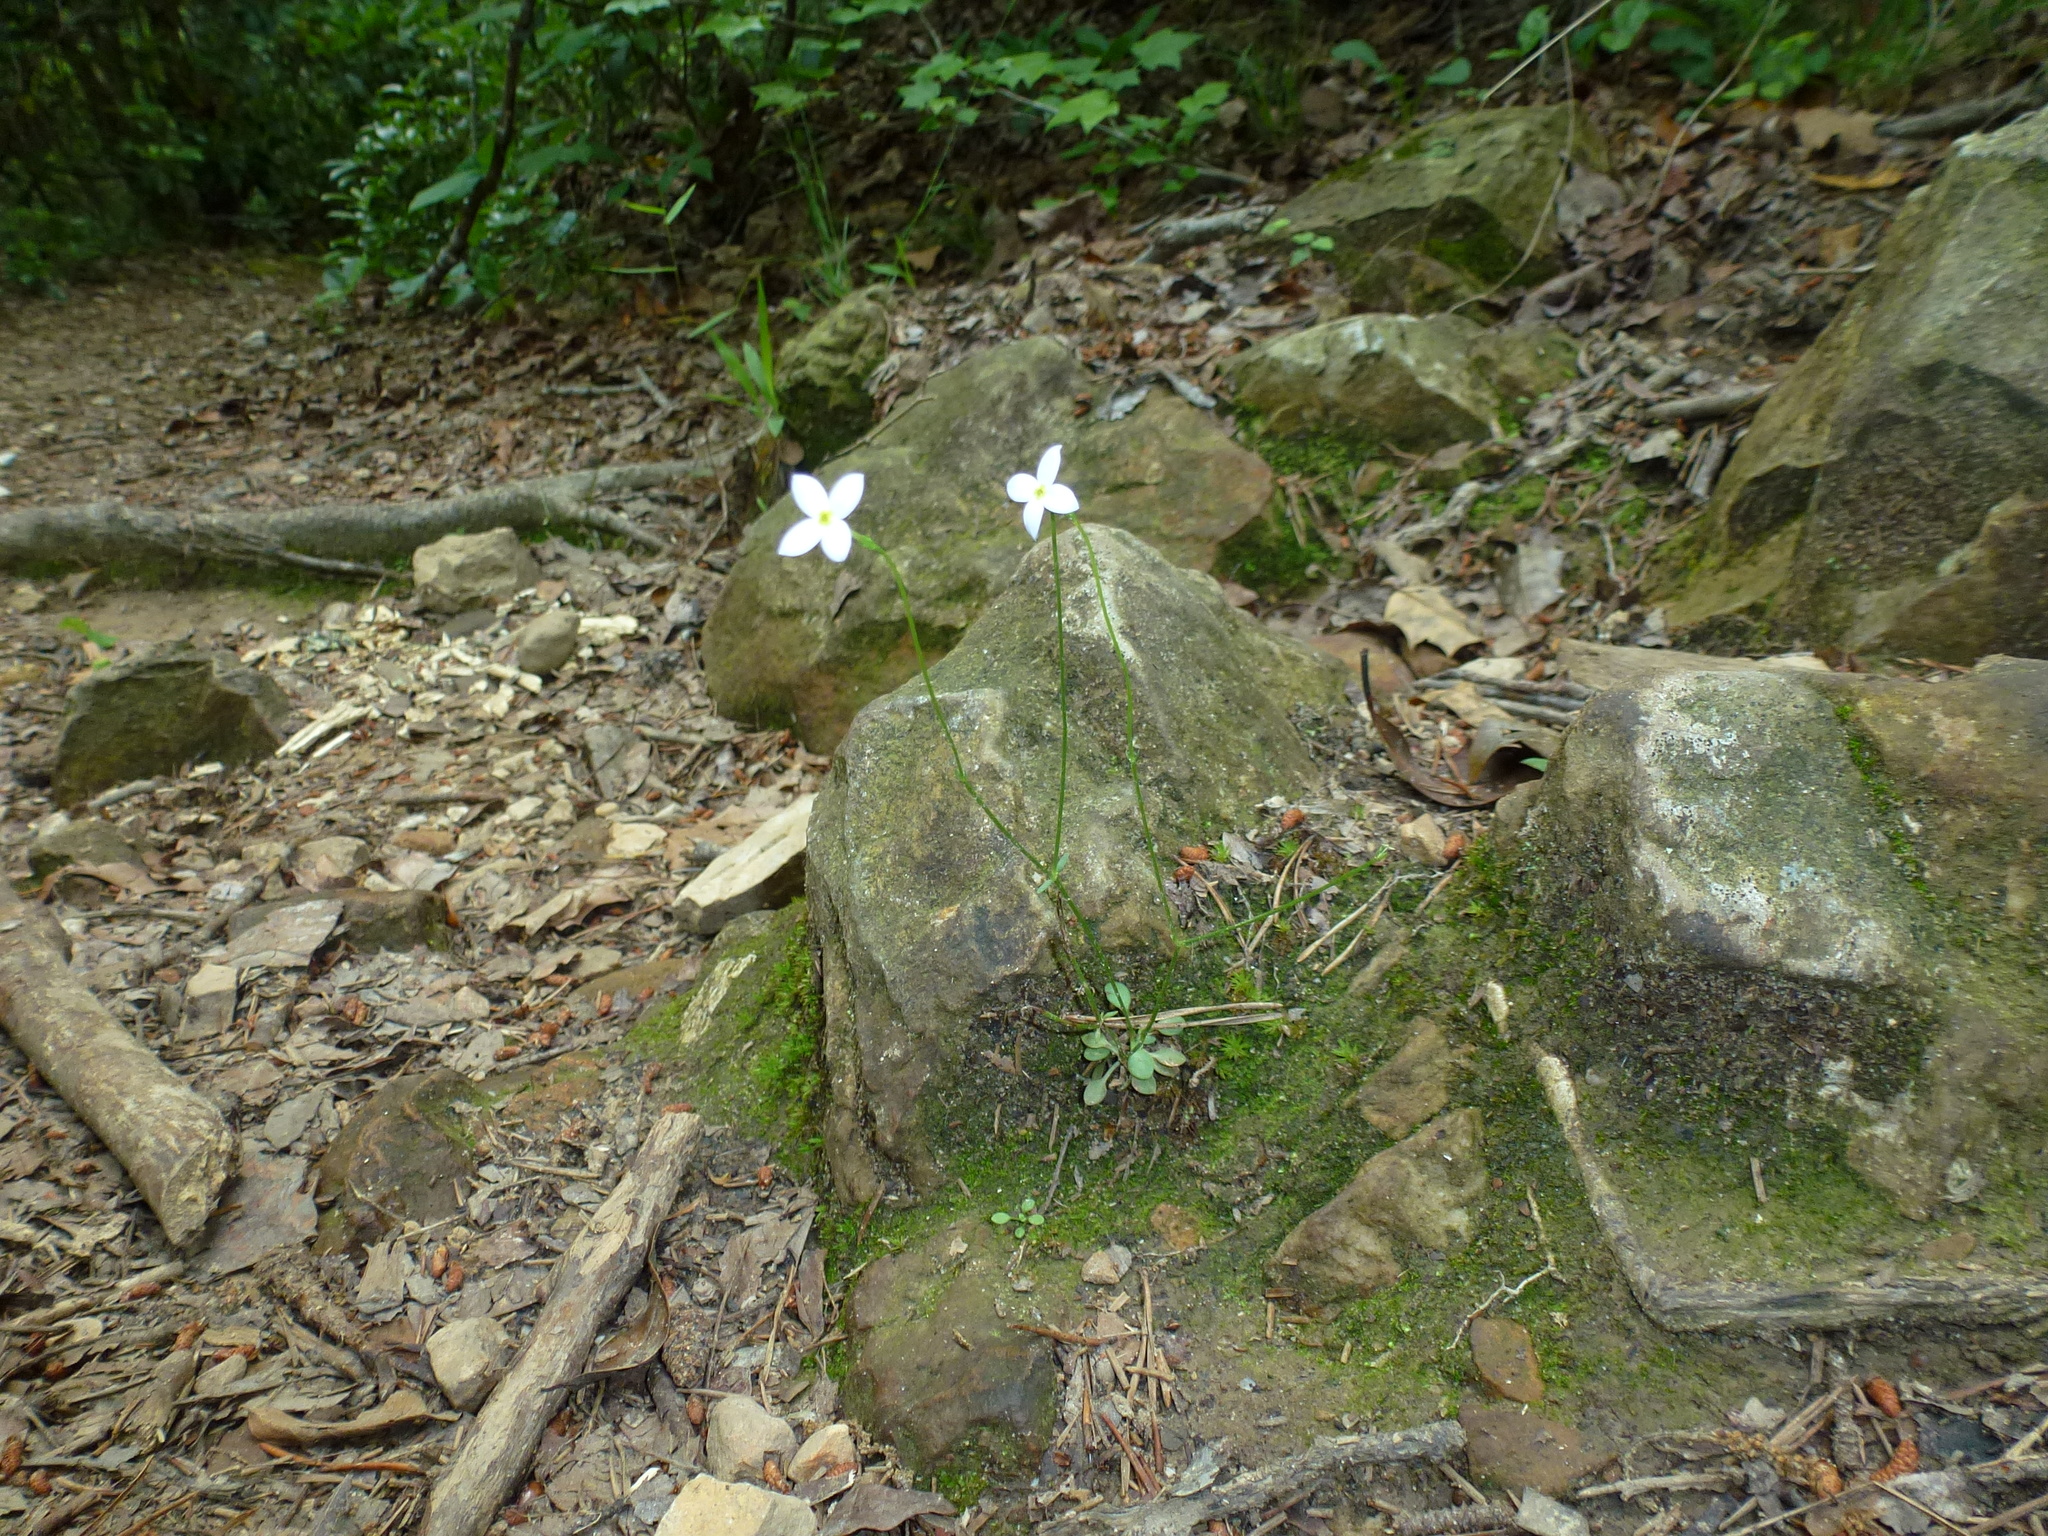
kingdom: Plantae
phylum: Tracheophyta
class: Magnoliopsida
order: Gentianales
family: Rubiaceae
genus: Houstonia
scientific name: Houstonia caerulea
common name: Bluets
